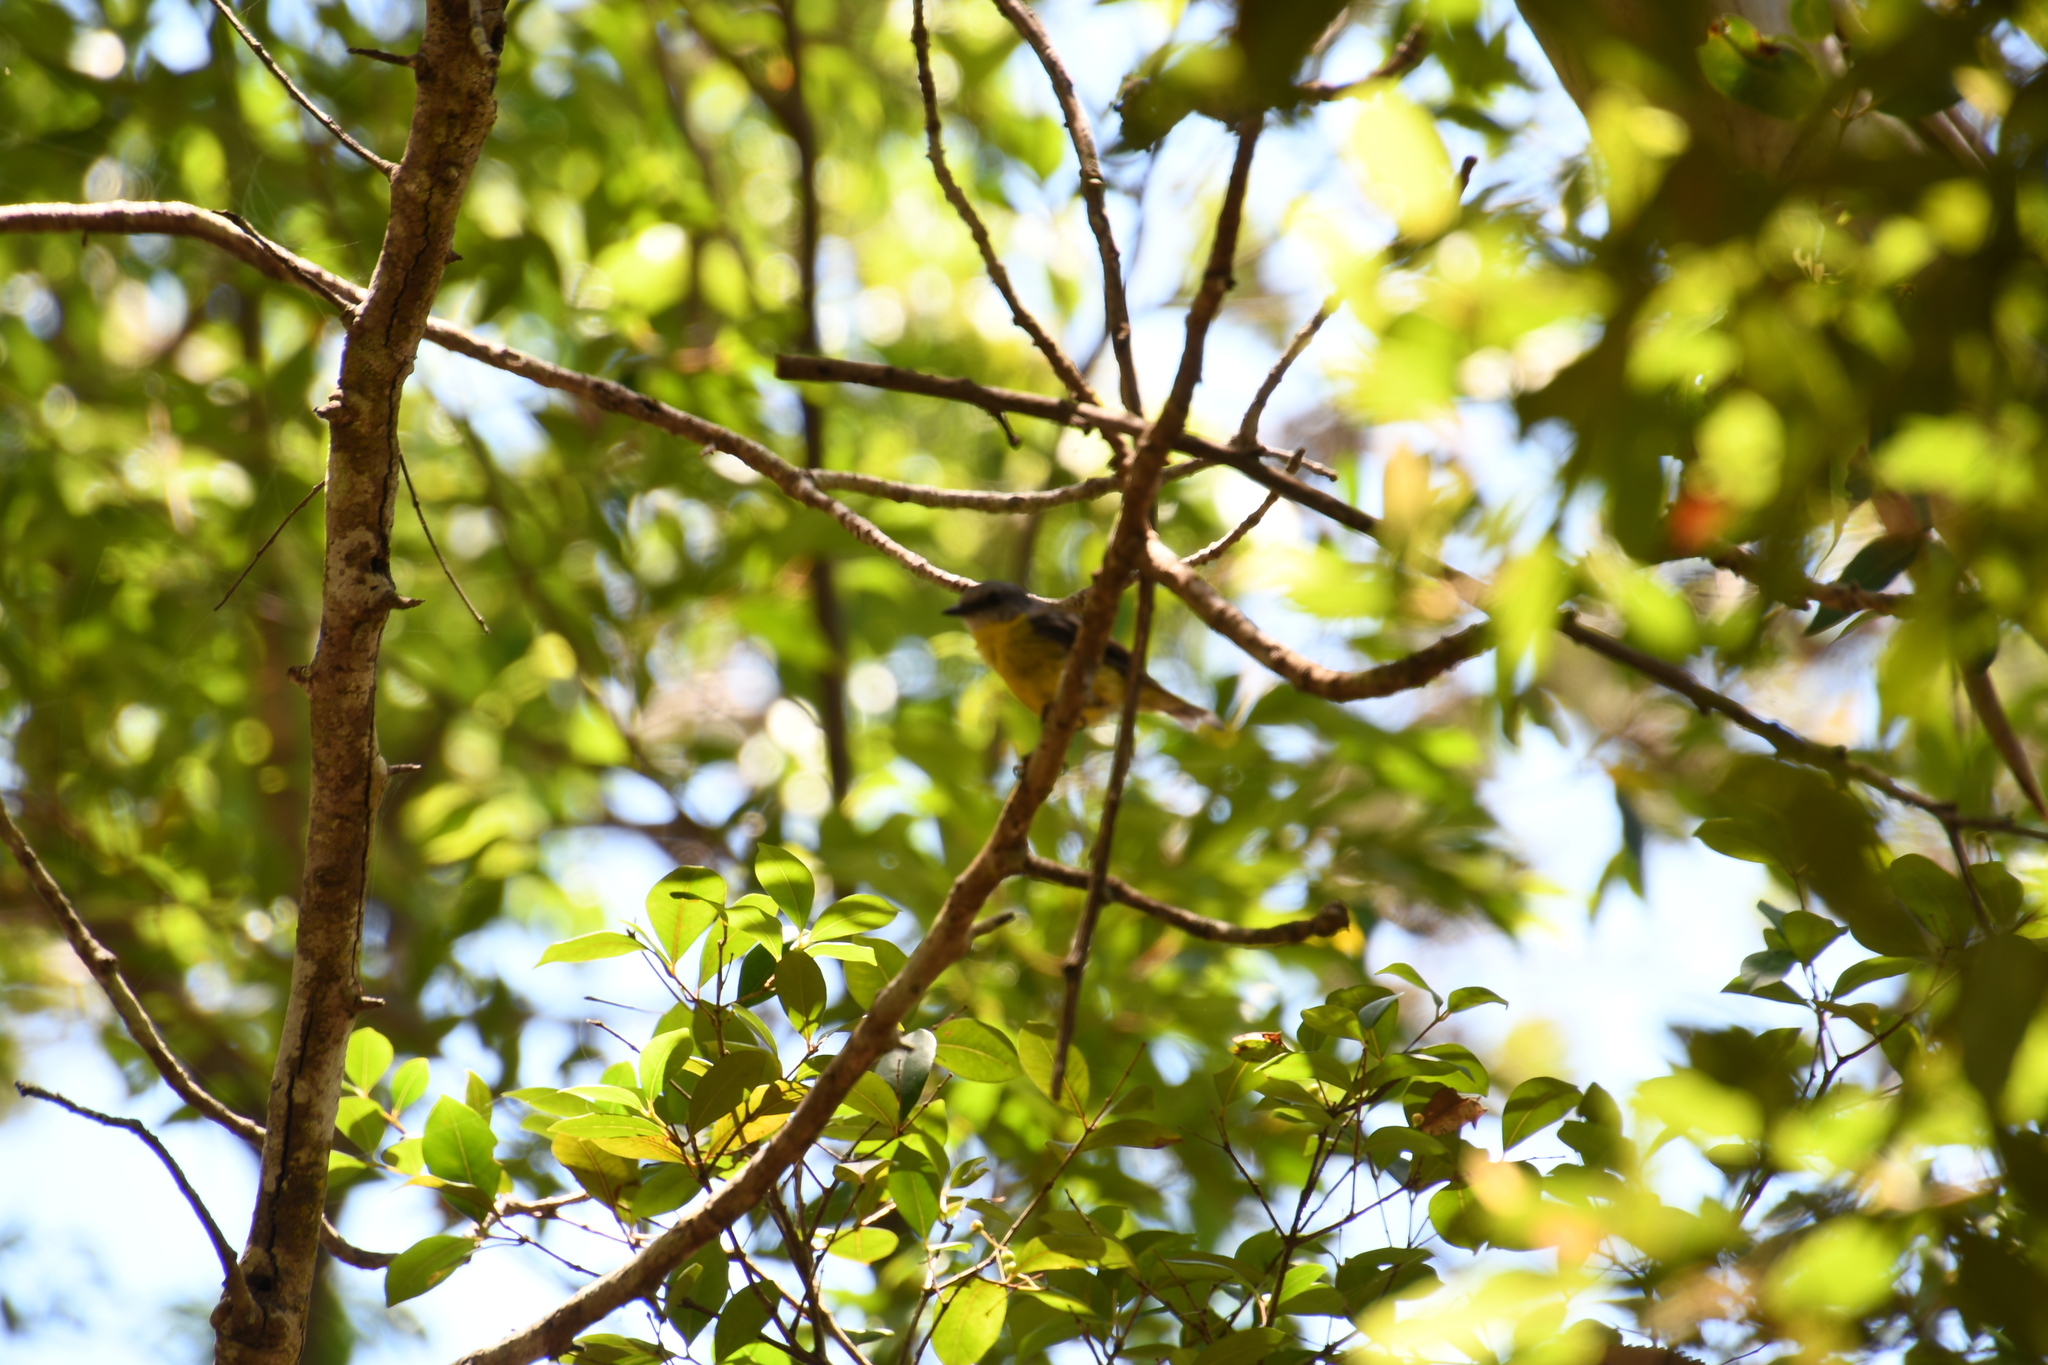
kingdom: Animalia
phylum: Chordata
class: Aves
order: Passeriformes
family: Petroicidae
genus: Eopsaltria
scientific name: Eopsaltria australis
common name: Eastern yellow robin
